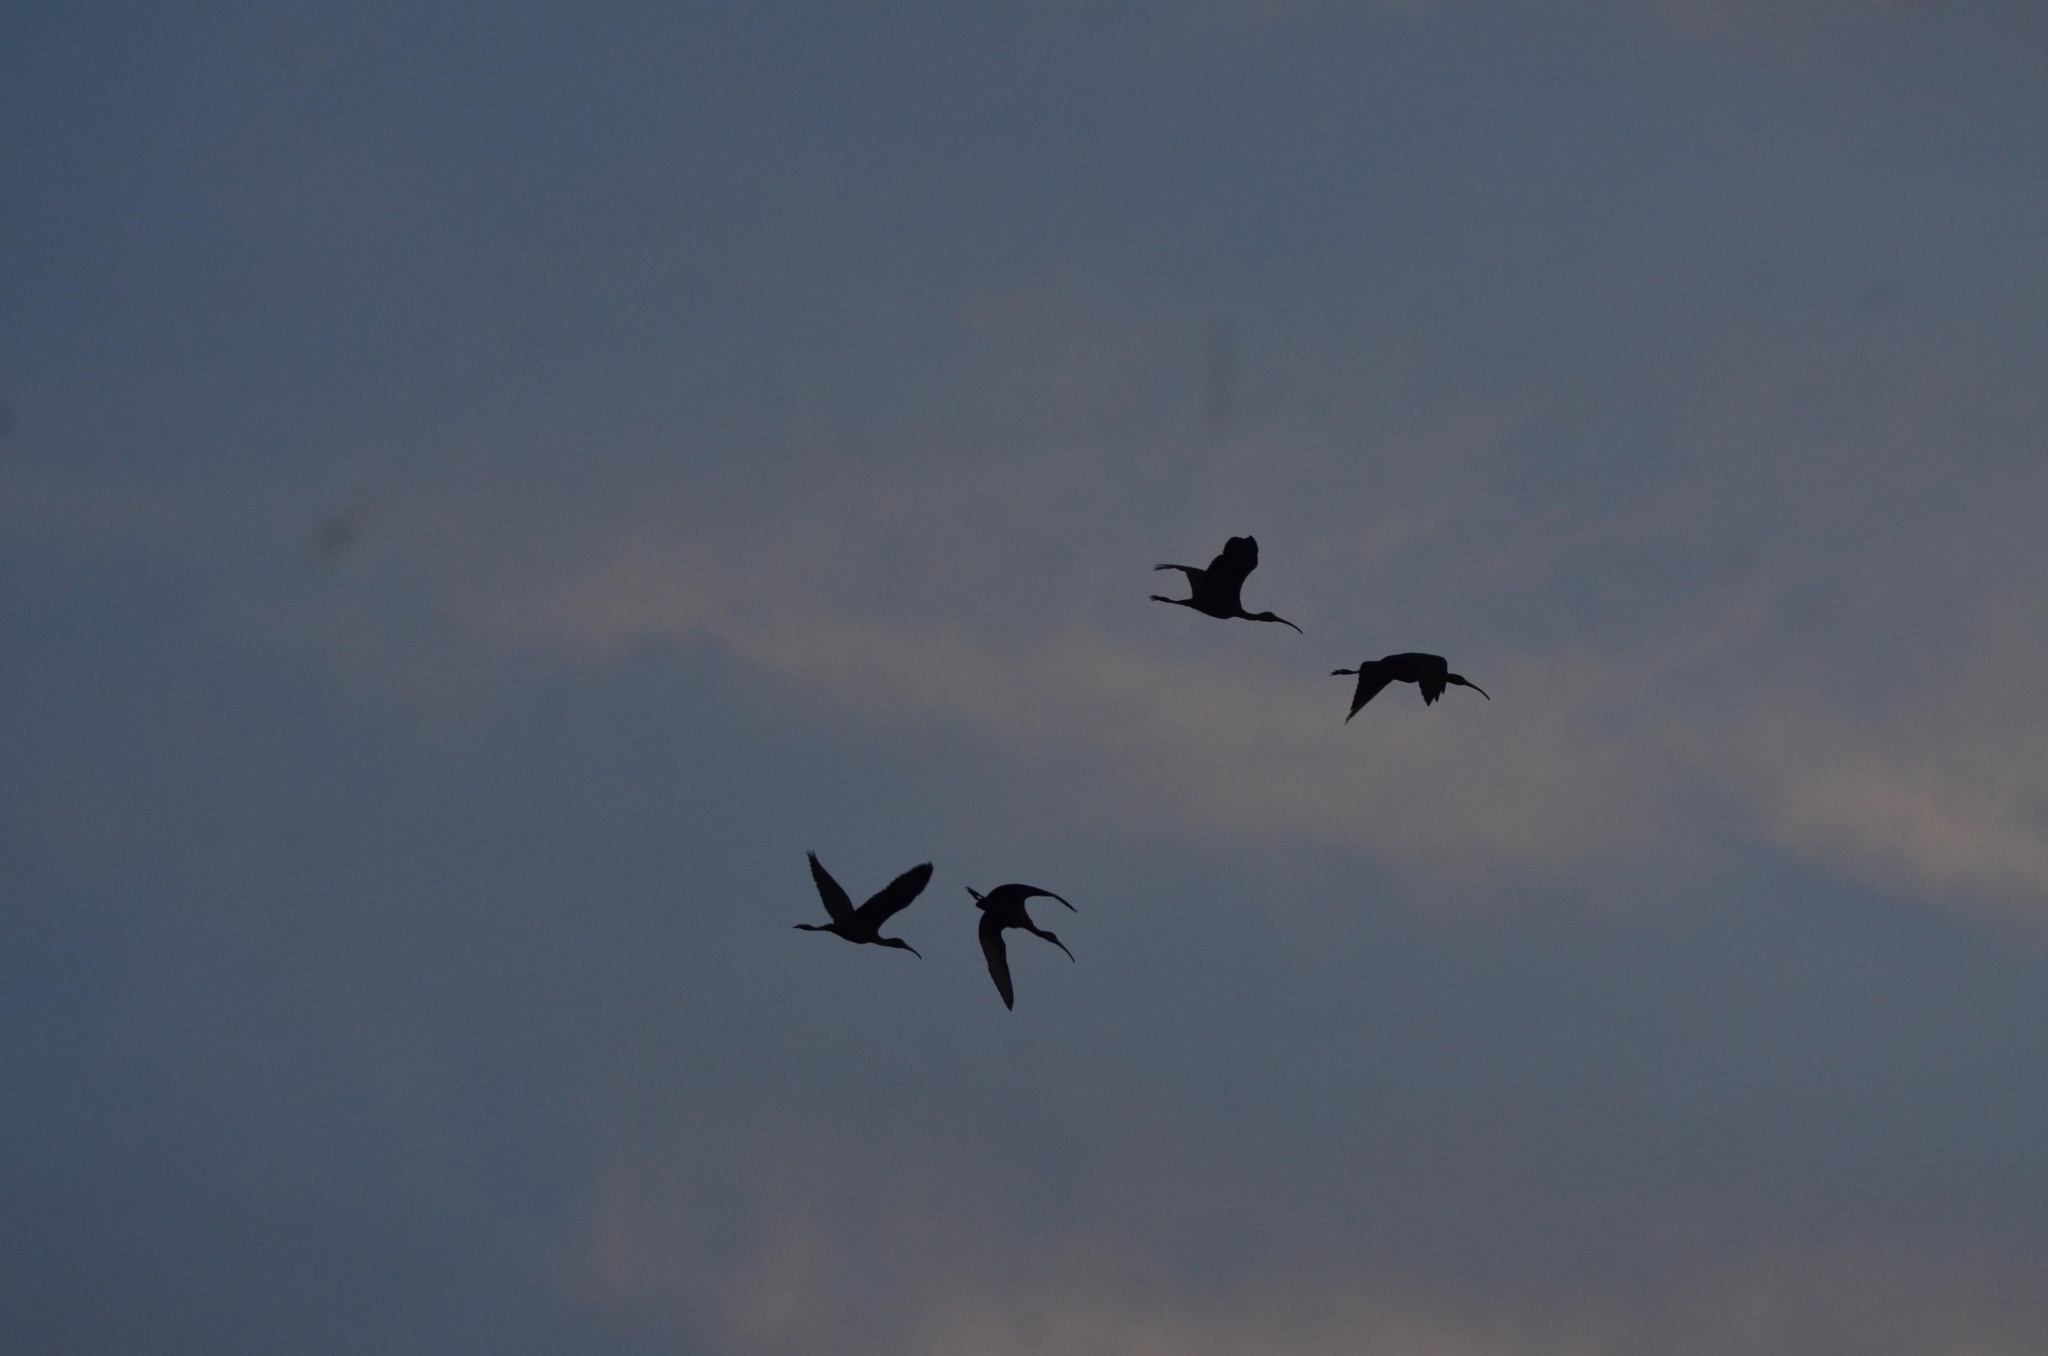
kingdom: Animalia
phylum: Chordata
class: Aves
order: Pelecaniformes
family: Threskiornithidae
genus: Plegadis
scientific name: Plegadis falcinellus
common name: Glossy ibis
